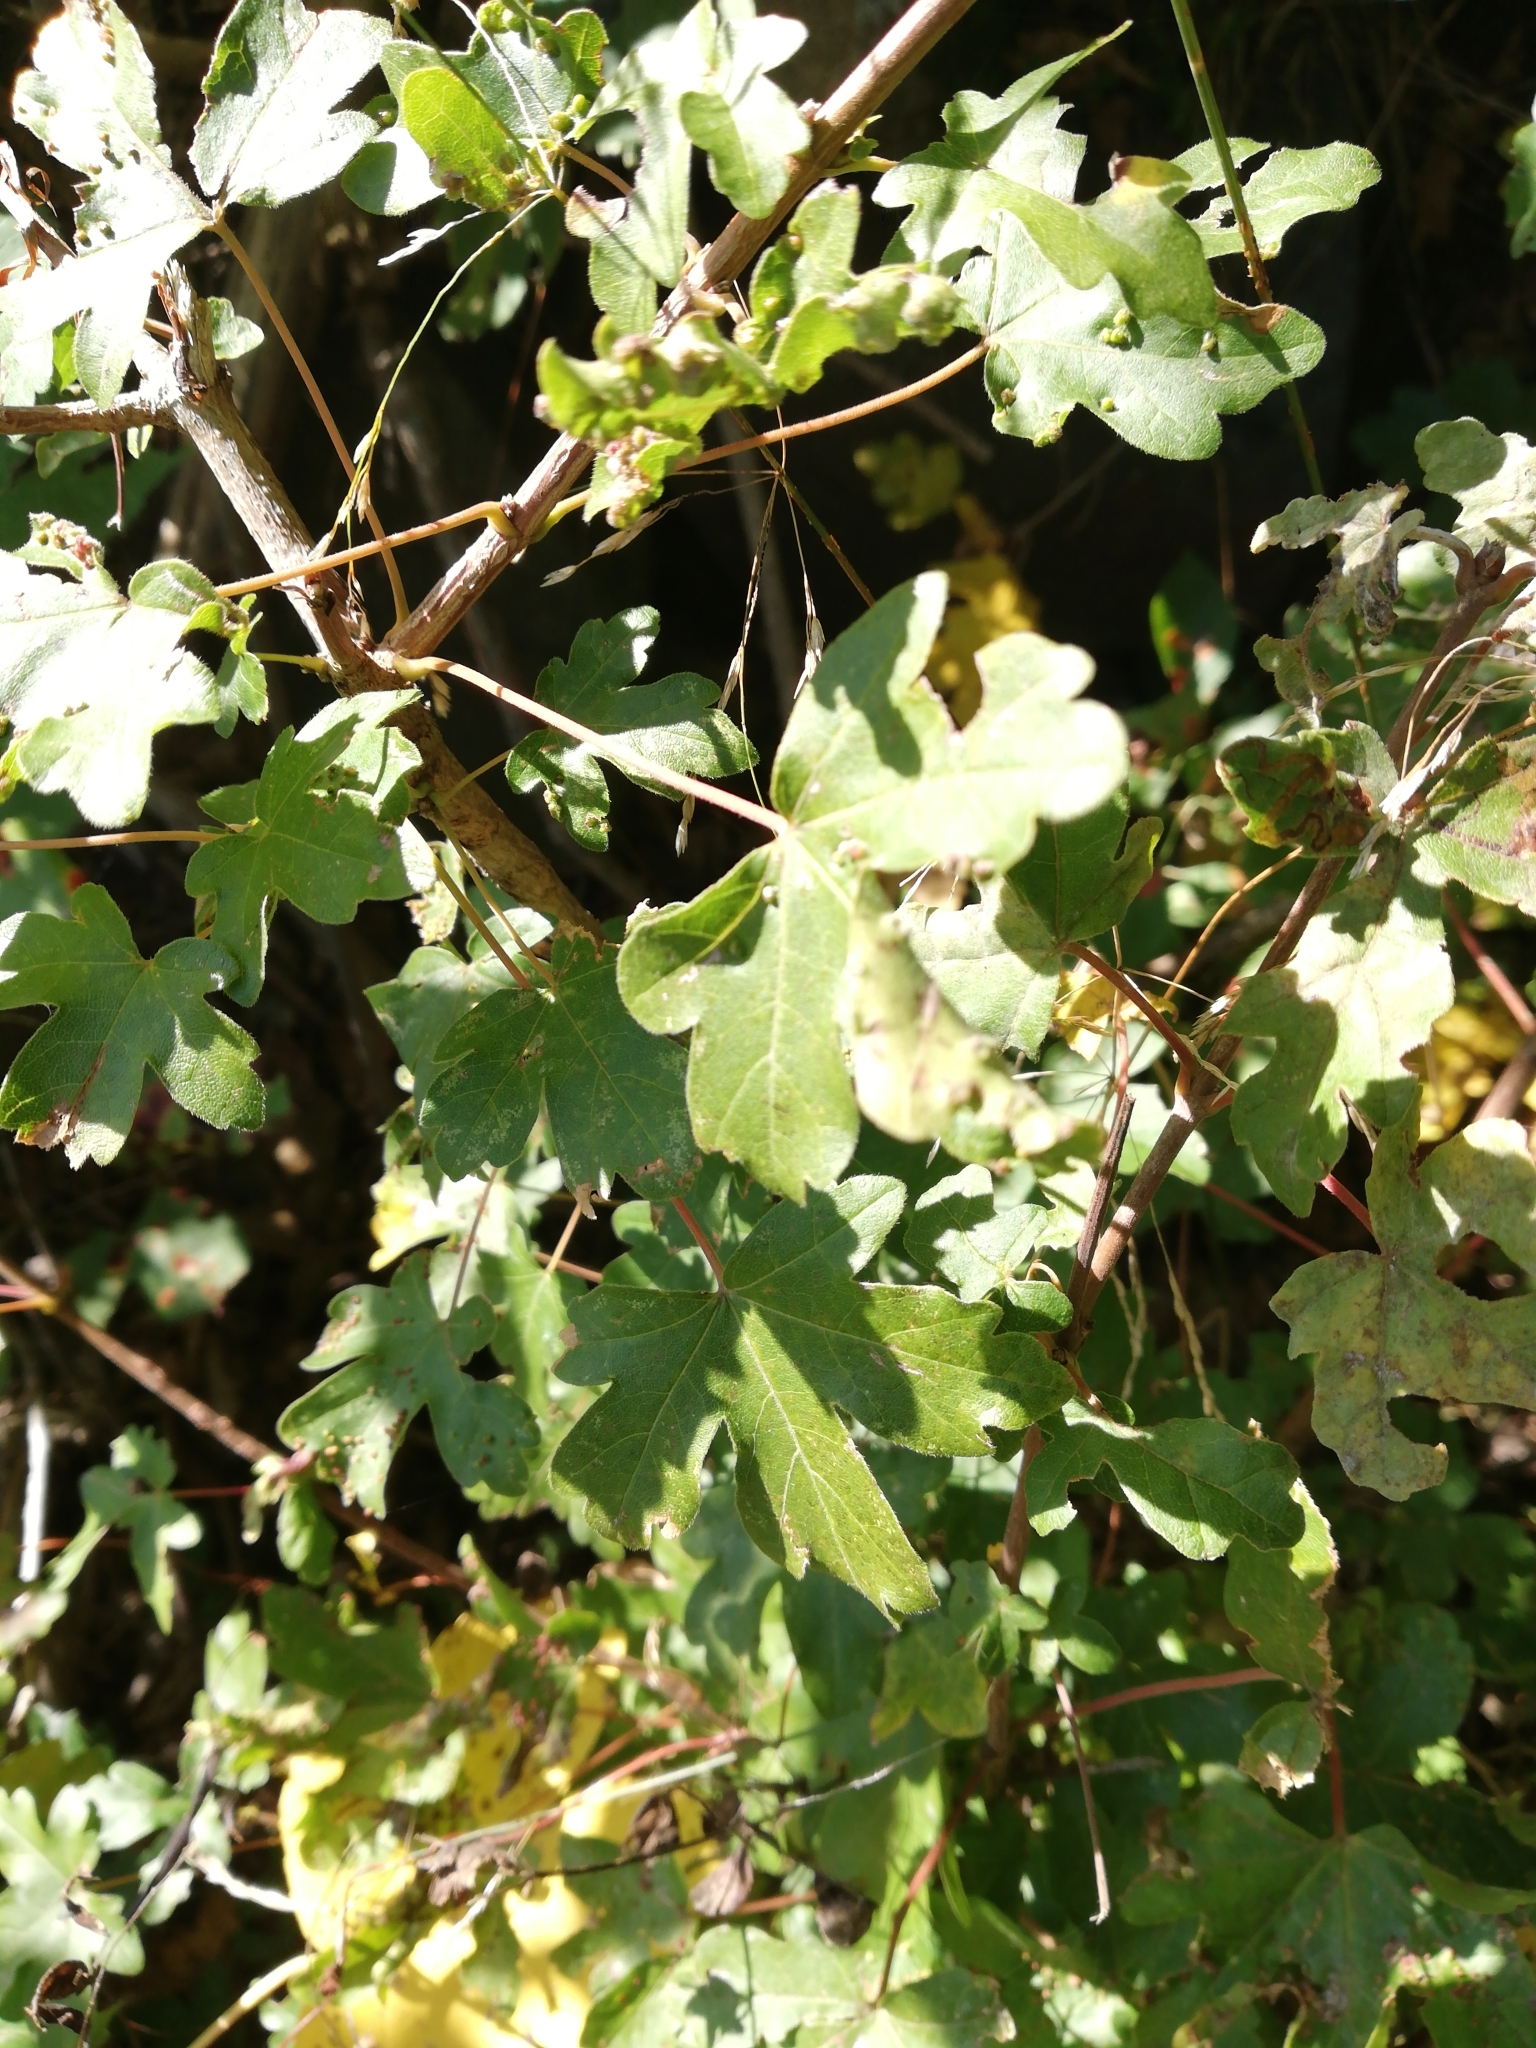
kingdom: Plantae
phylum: Tracheophyta
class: Magnoliopsida
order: Sapindales
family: Sapindaceae
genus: Acer
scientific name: Acer campestre
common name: Field maple
